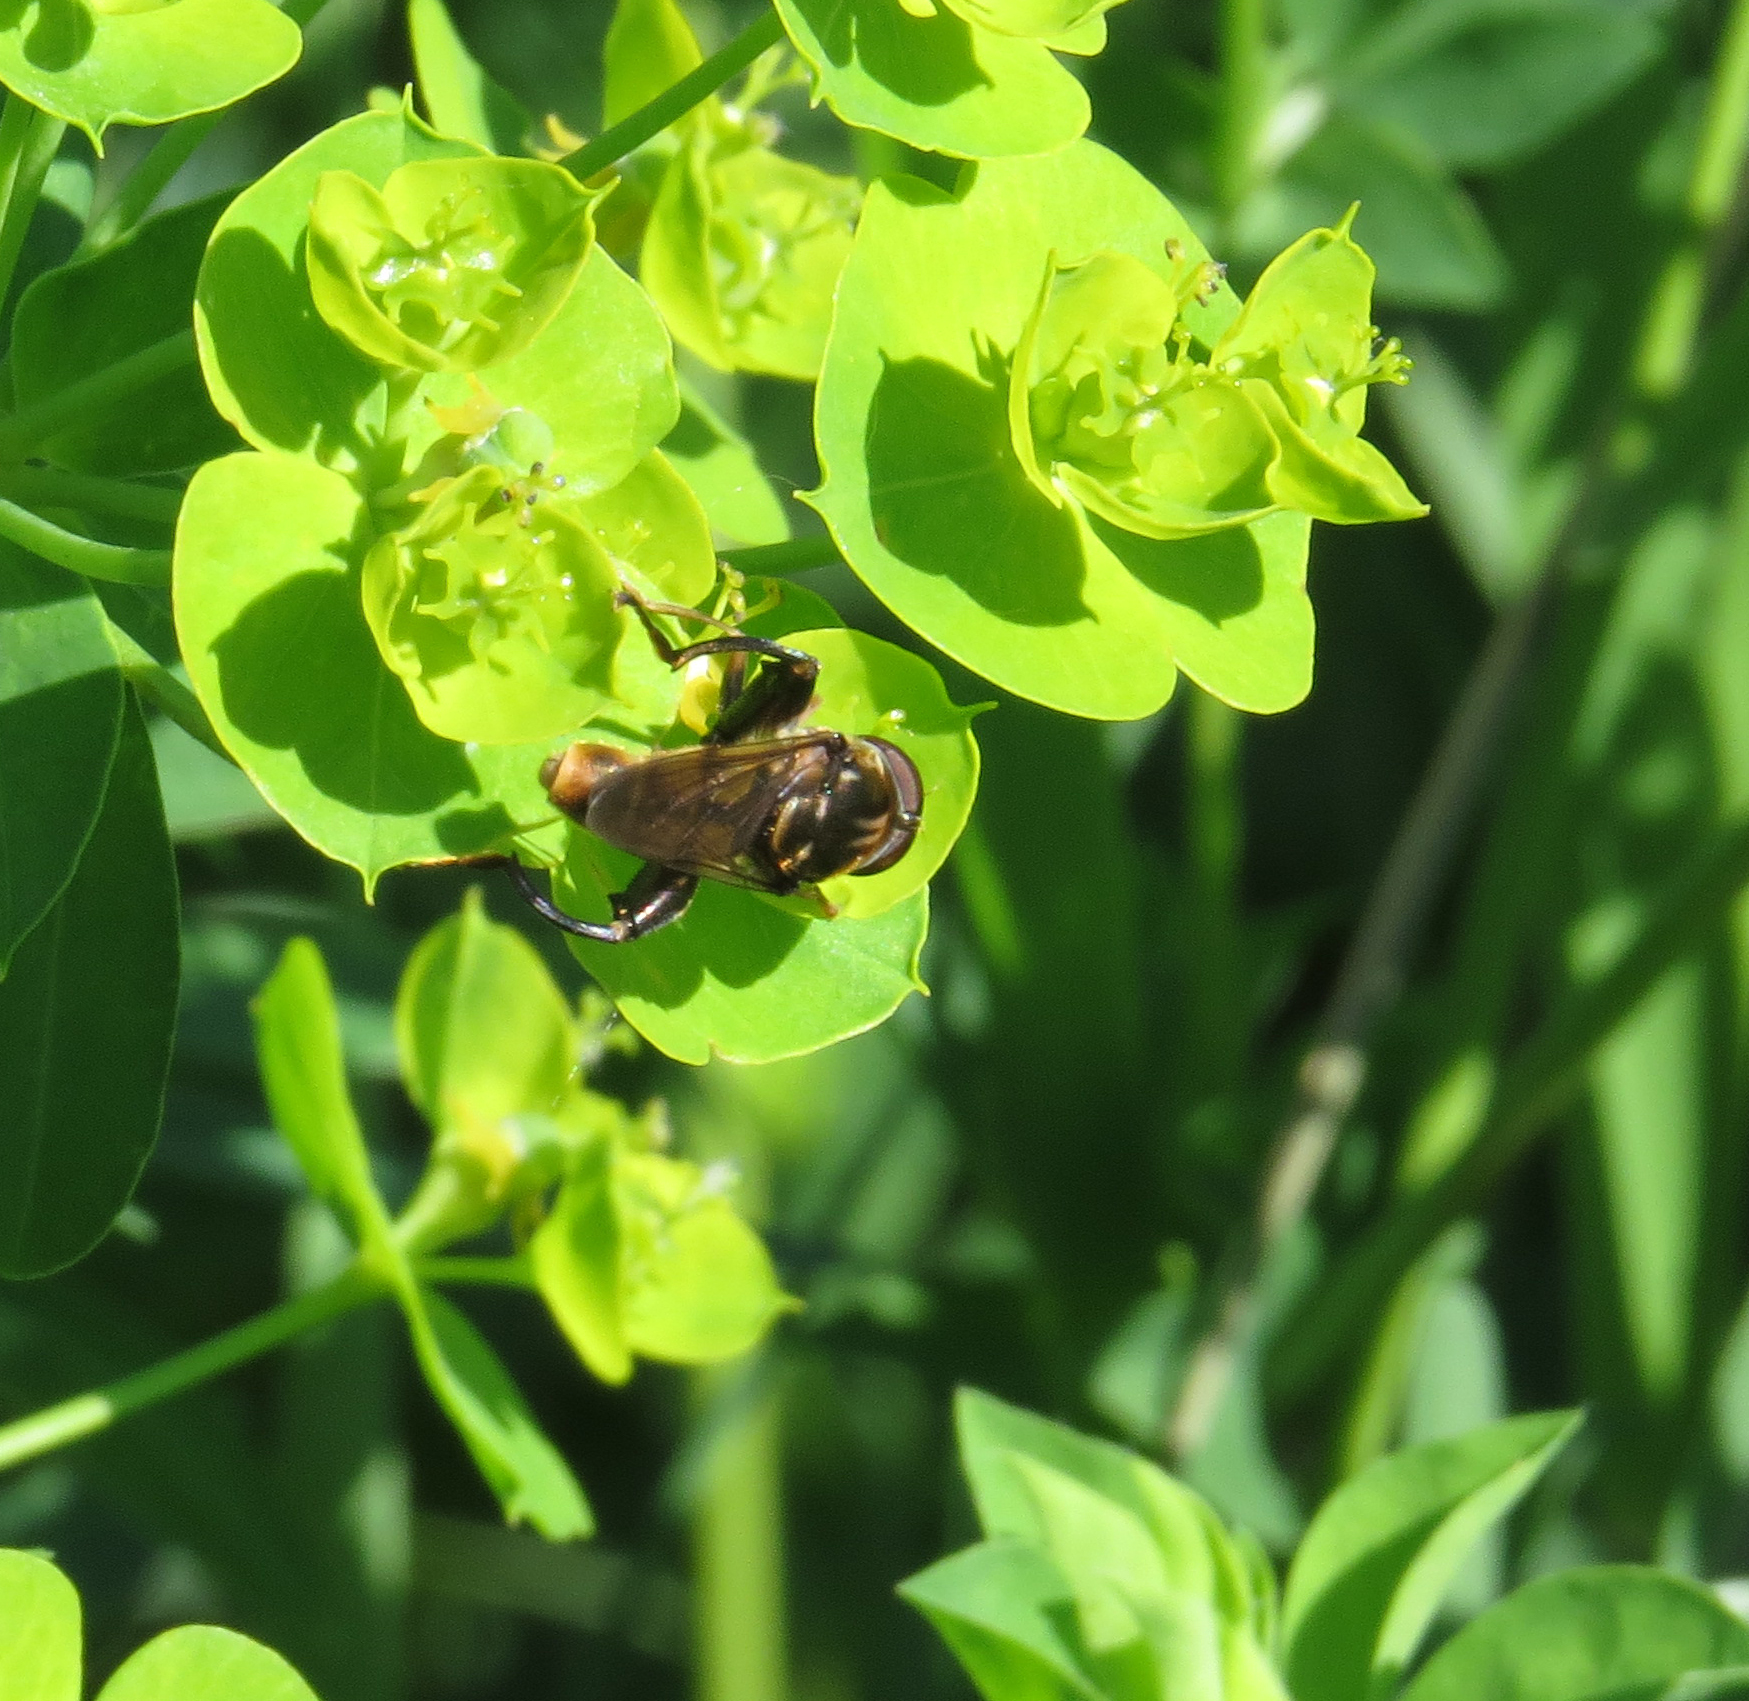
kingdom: Animalia
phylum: Arthropoda
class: Insecta
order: Diptera
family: Syrphidae
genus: Tropidia
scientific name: Tropidia quadrata
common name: Common thick-legged fly
